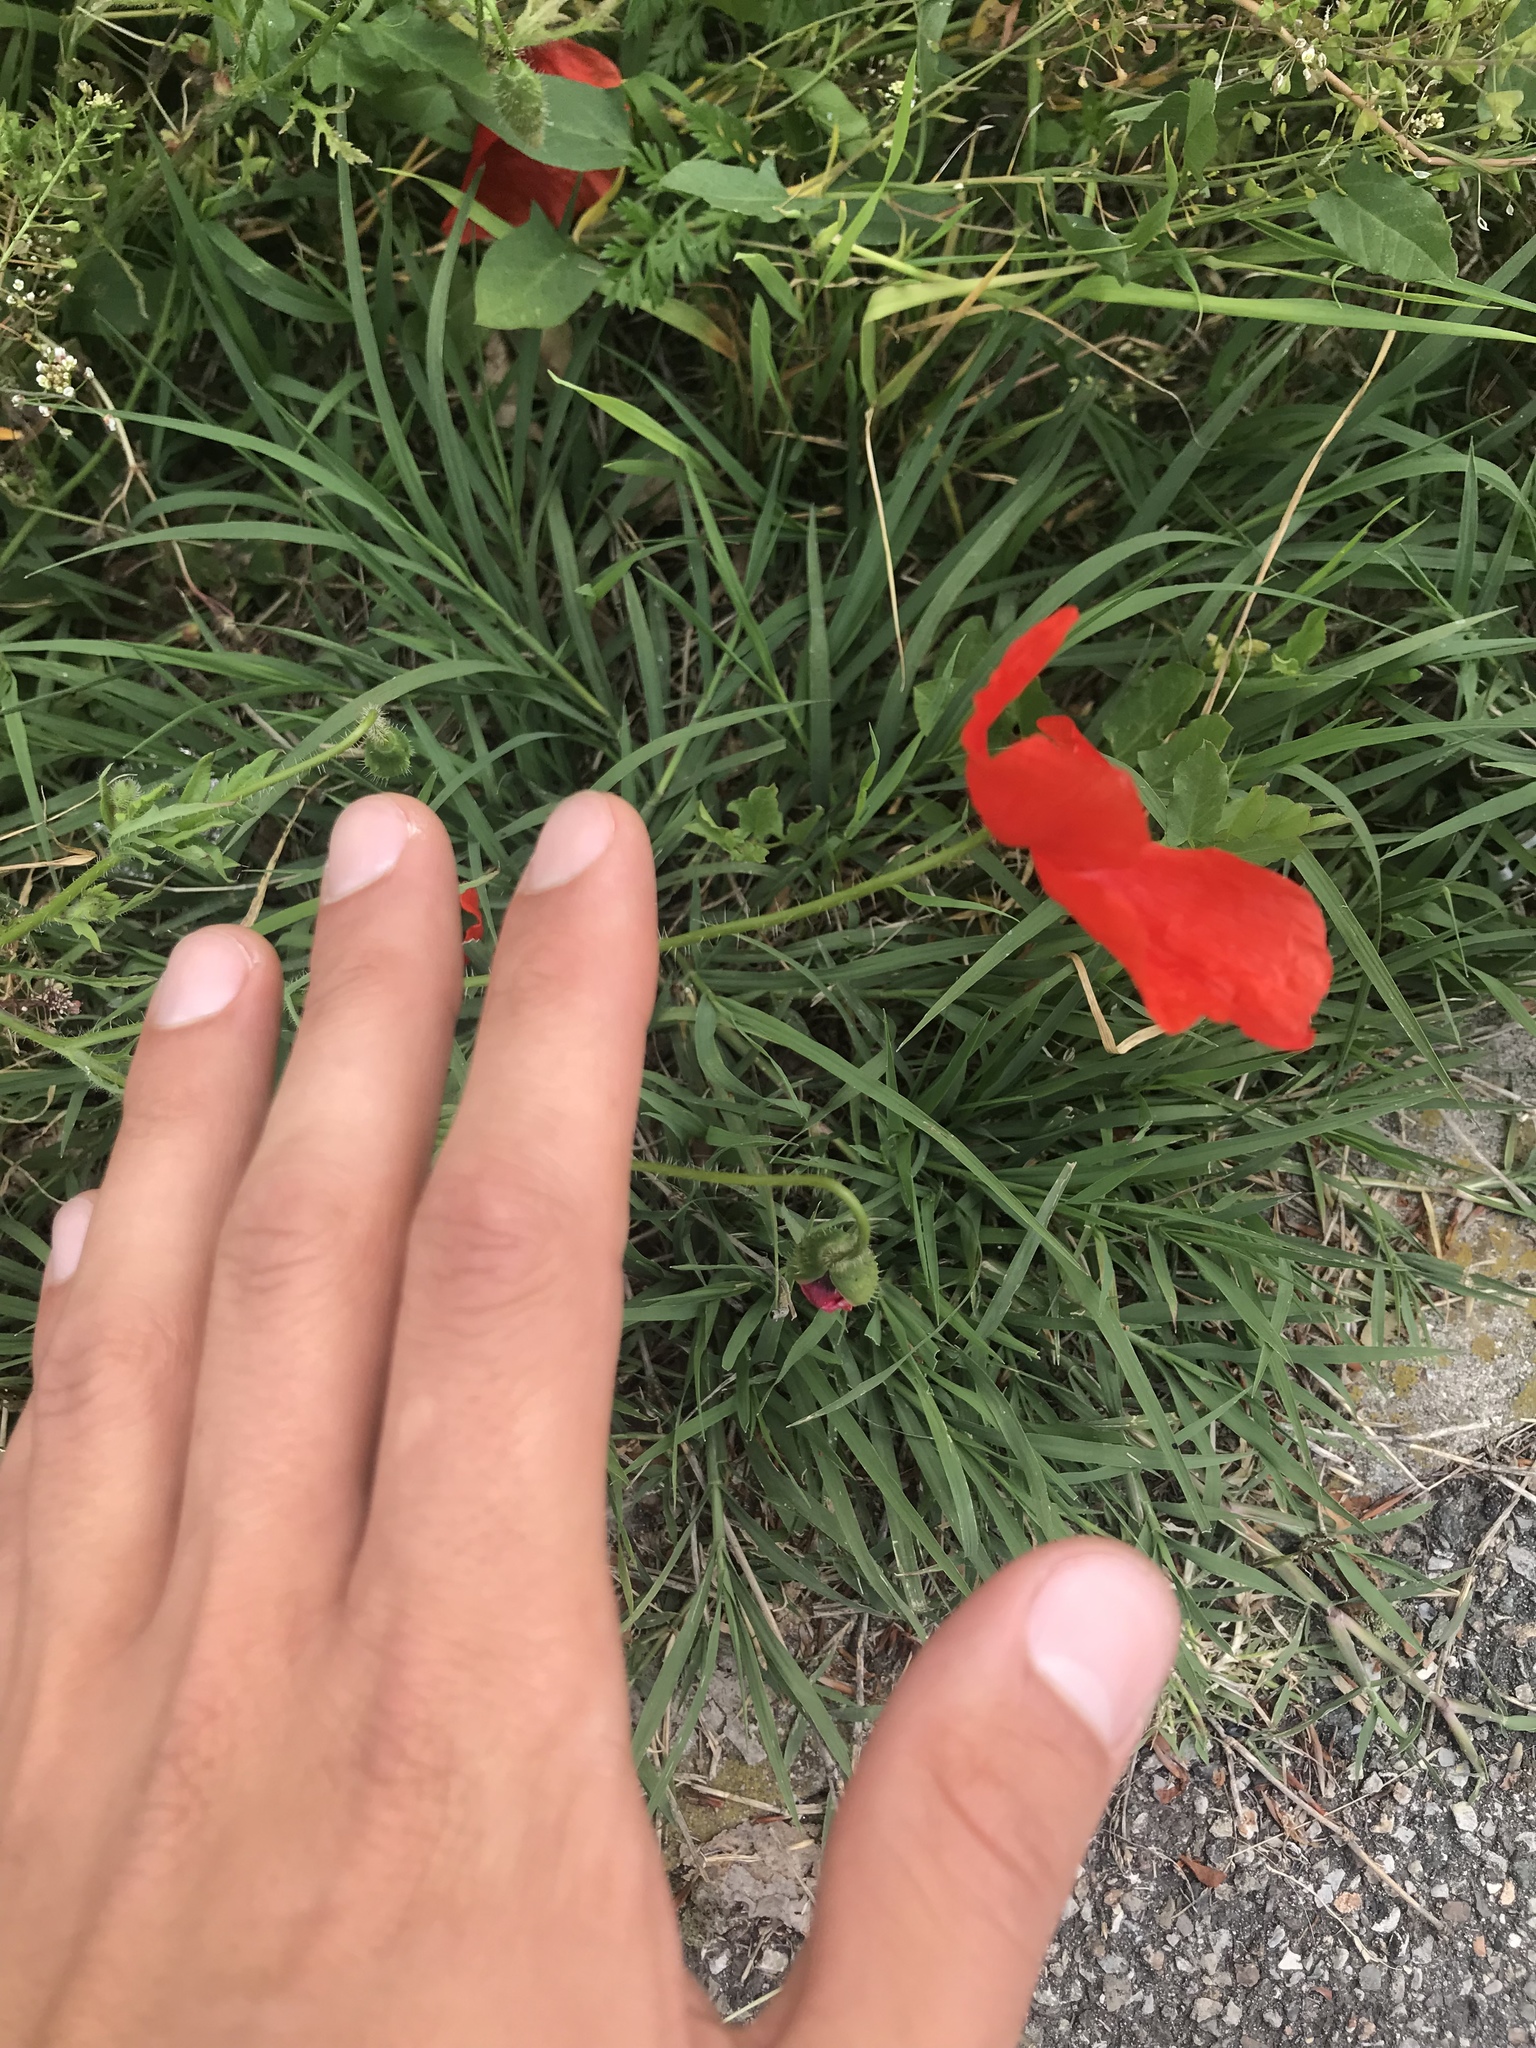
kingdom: Plantae
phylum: Tracheophyta
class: Magnoliopsida
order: Ranunculales
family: Papaveraceae
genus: Papaver
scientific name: Papaver rhoeas
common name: Corn poppy
